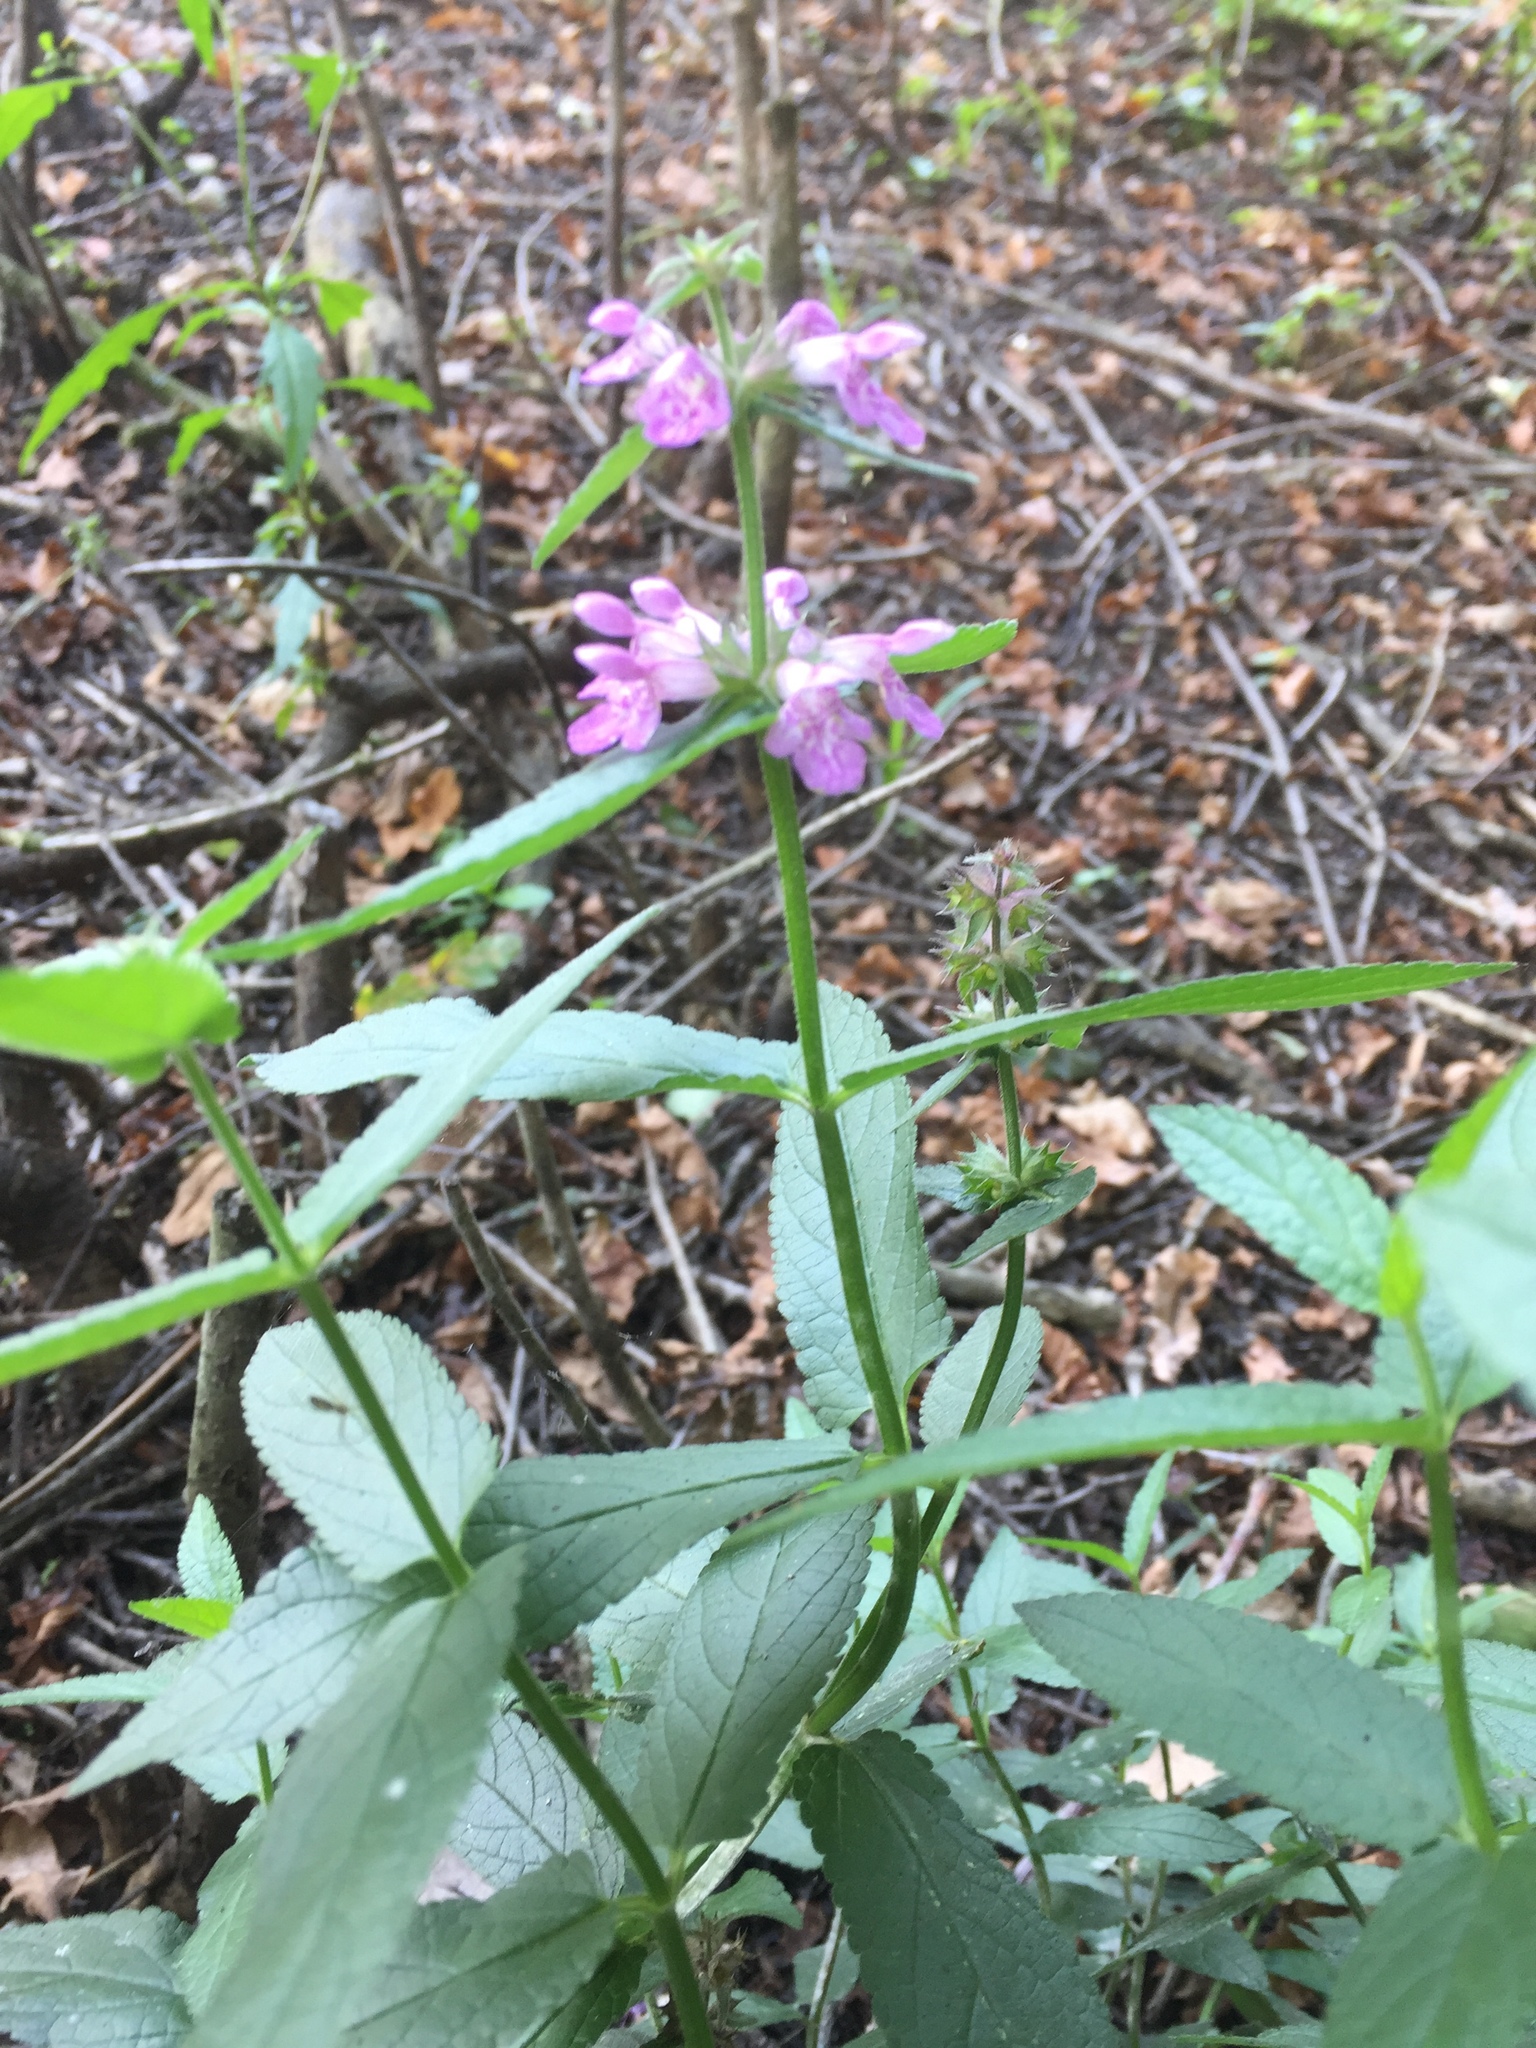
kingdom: Plantae
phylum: Tracheophyta
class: Magnoliopsida
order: Lamiales
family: Lamiaceae
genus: Stachys
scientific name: Stachys palustris
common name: Marsh woundwort
